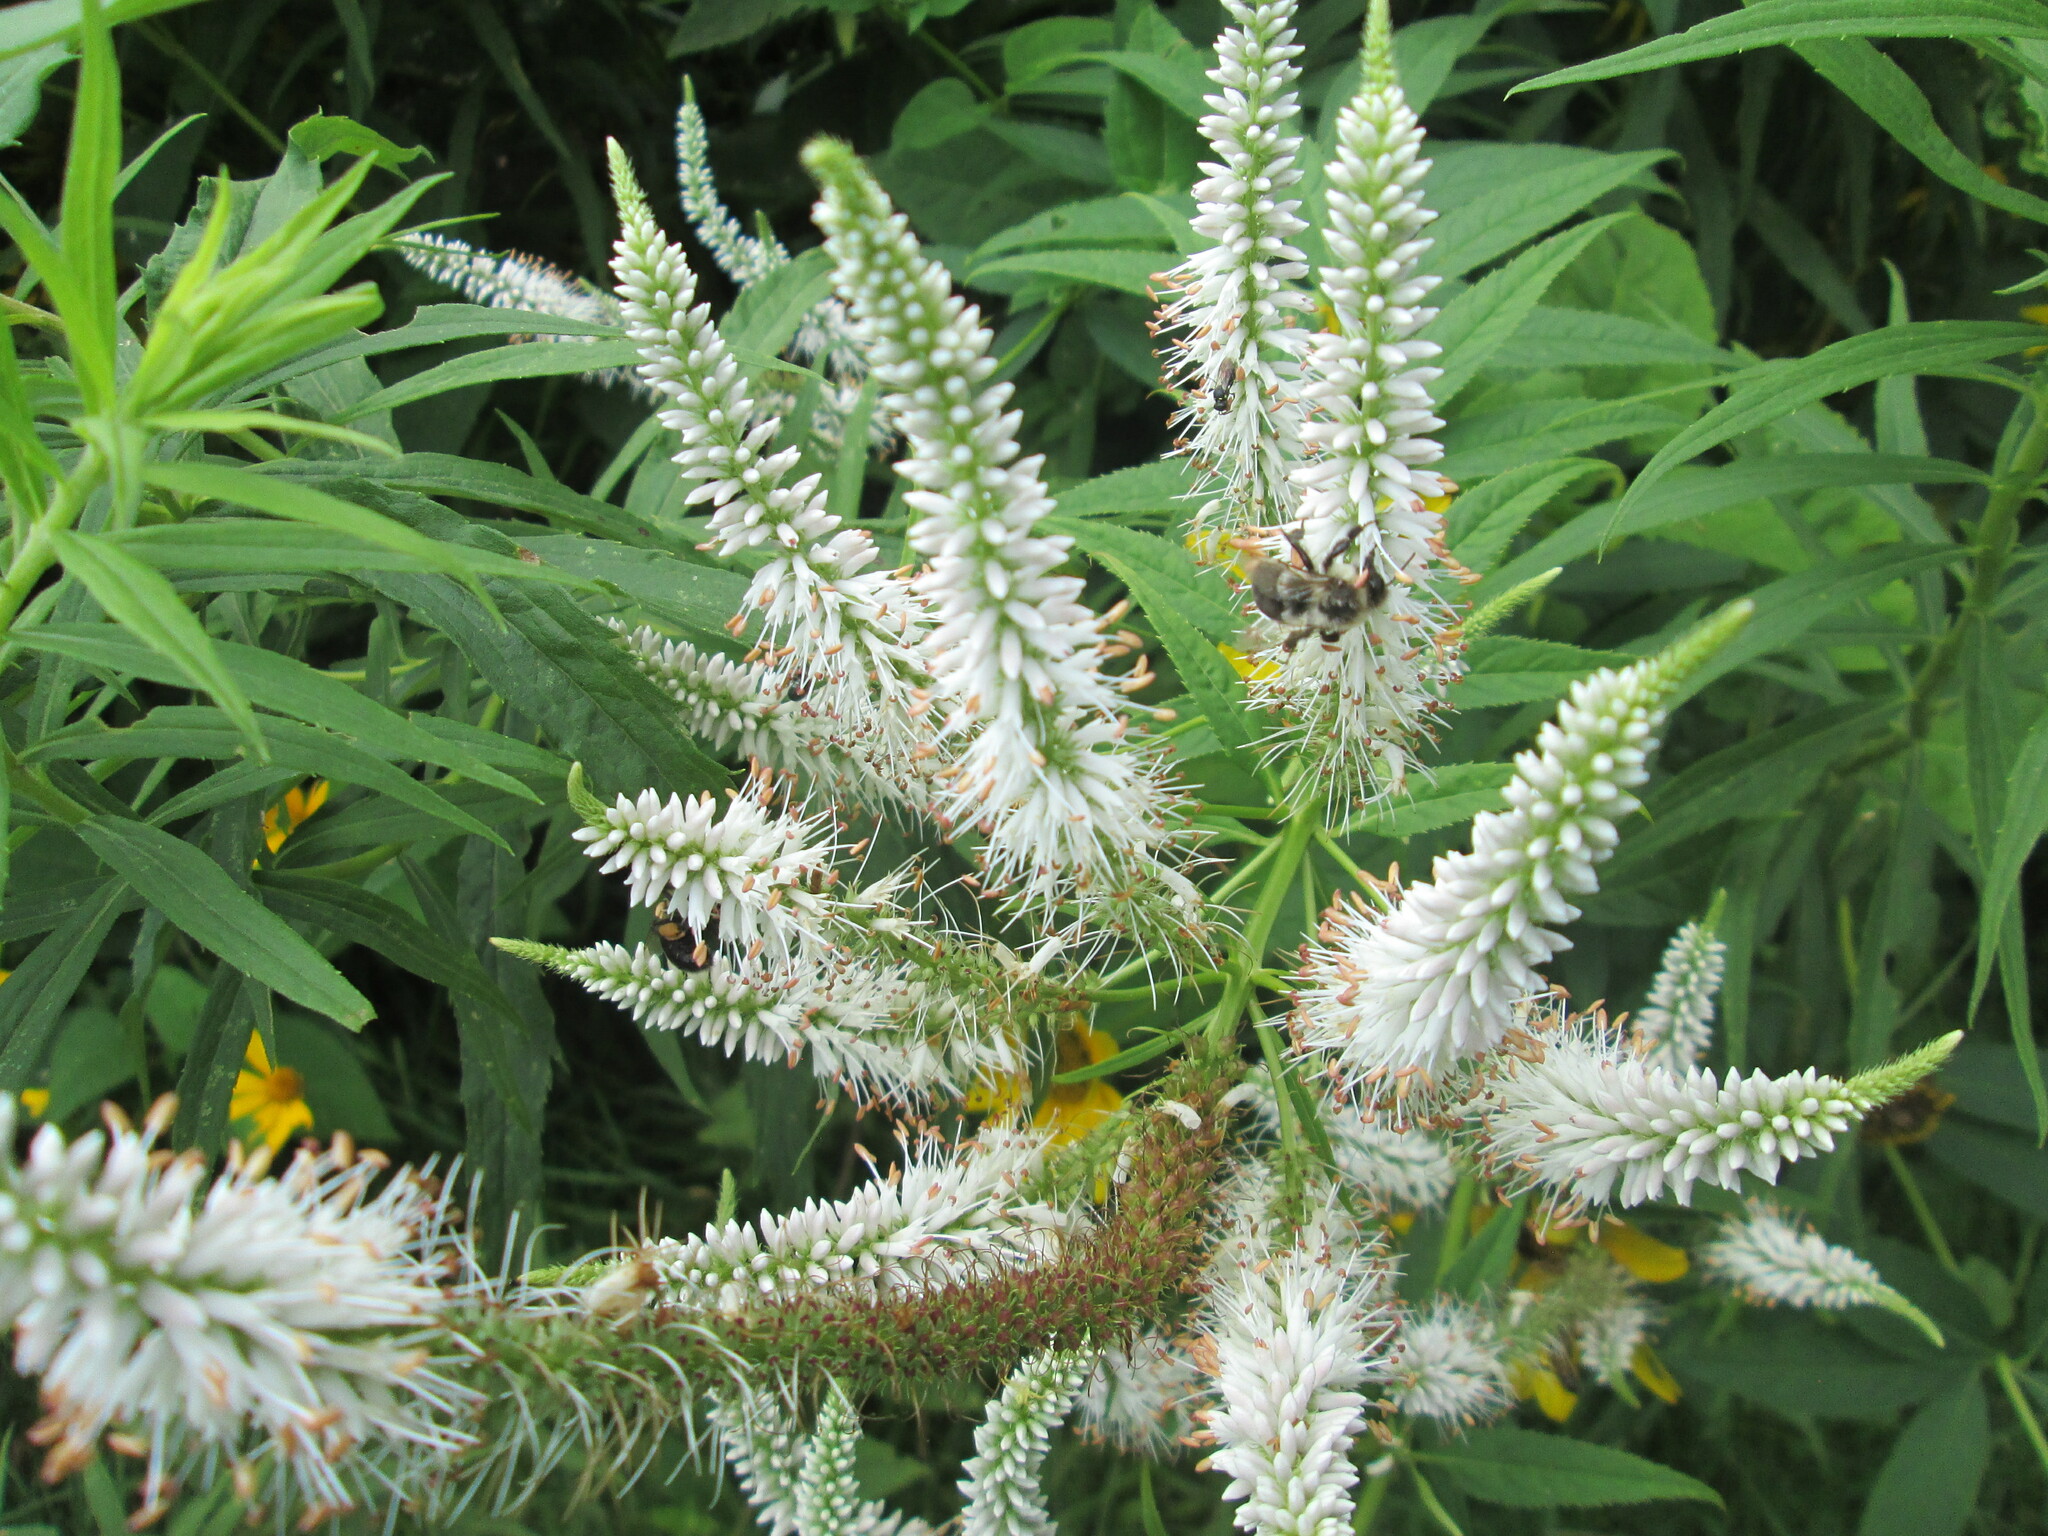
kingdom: Animalia
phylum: Arthropoda
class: Insecta
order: Hymenoptera
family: Apidae
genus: Bombus
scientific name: Bombus impatiens
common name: Common eastern bumble bee
